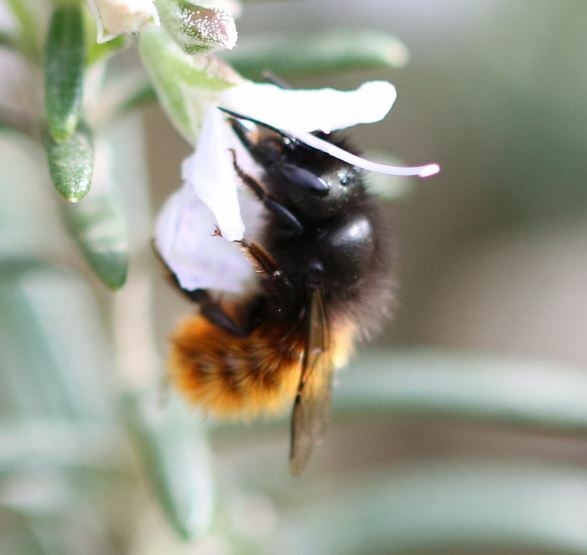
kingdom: Animalia
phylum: Arthropoda
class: Insecta
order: Hymenoptera
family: Megachilidae
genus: Osmia
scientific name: Osmia cornuta
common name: Mason bee
